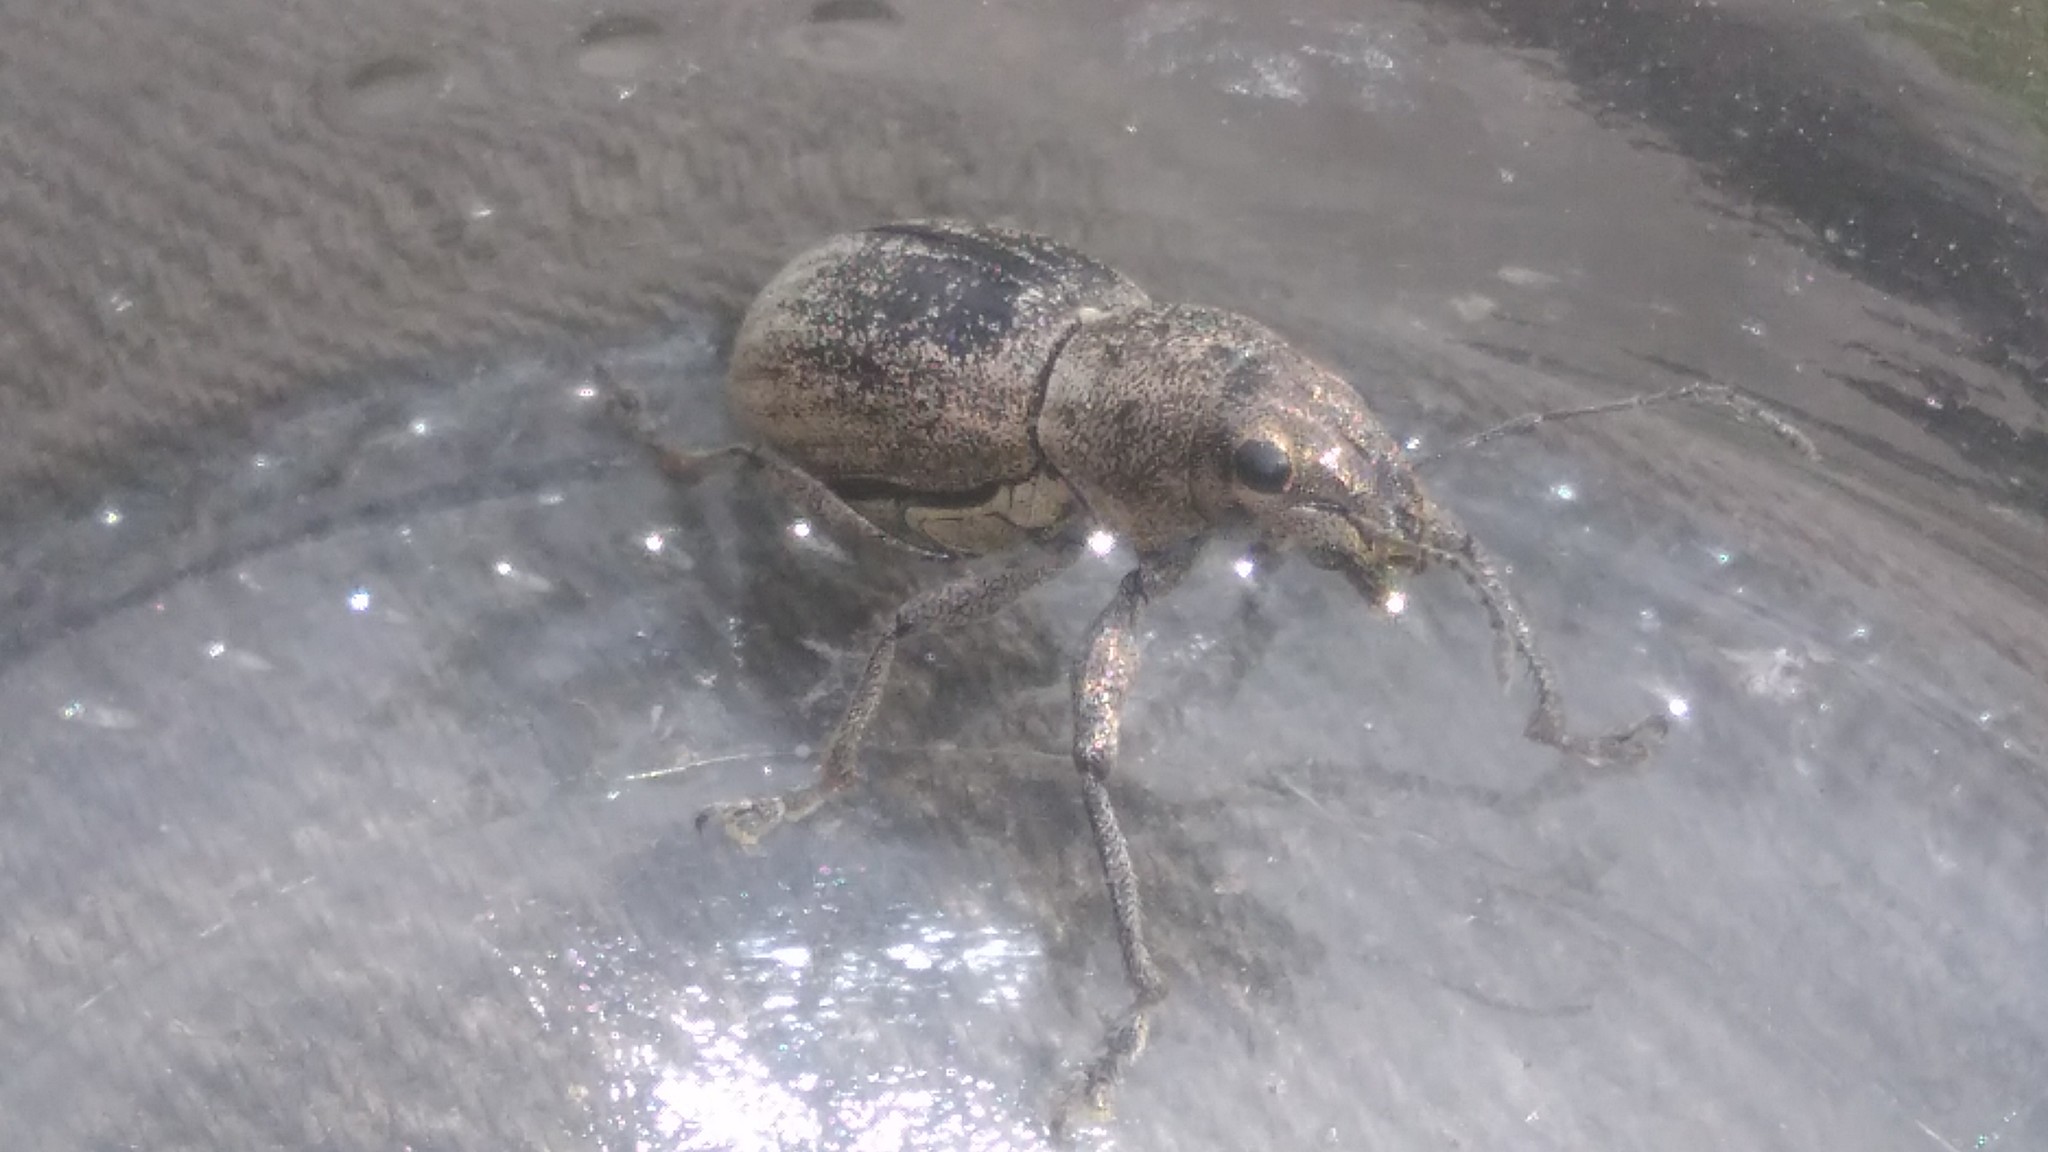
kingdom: Animalia
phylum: Arthropoda
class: Insecta
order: Coleoptera
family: Curculionidae
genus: Naupactus
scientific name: Naupactus versatilis
